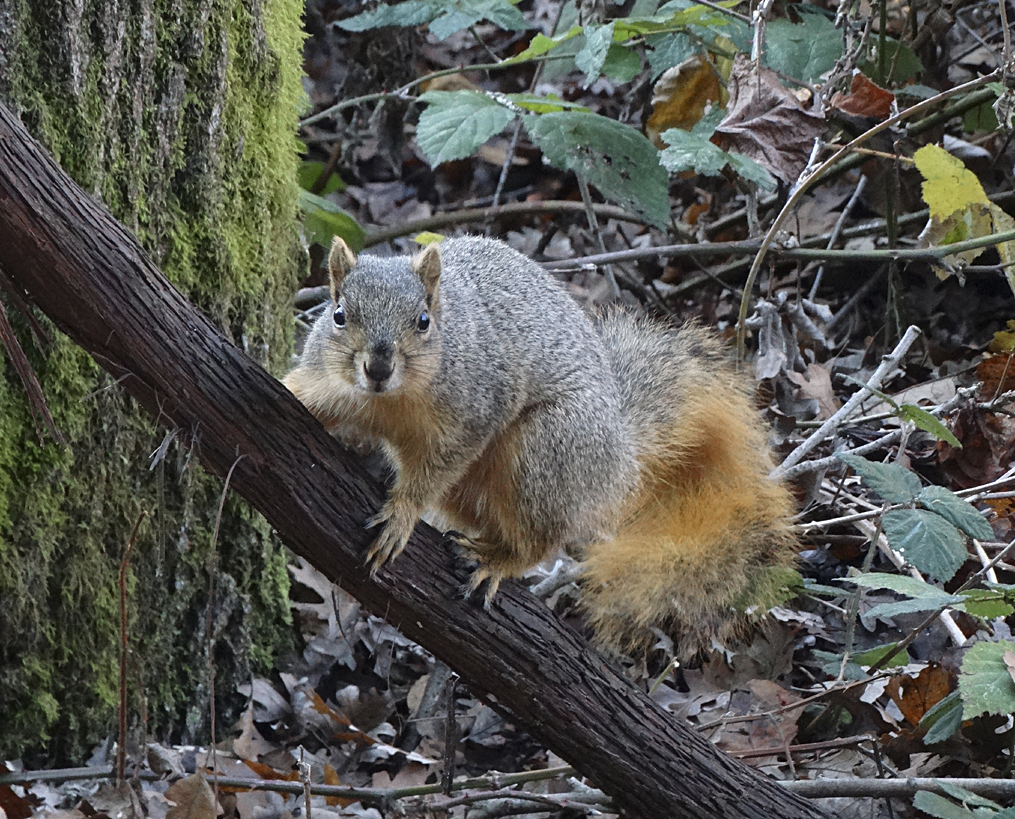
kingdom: Animalia
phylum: Chordata
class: Mammalia
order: Rodentia
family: Sciuridae
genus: Sciurus
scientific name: Sciurus niger
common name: Fox squirrel
